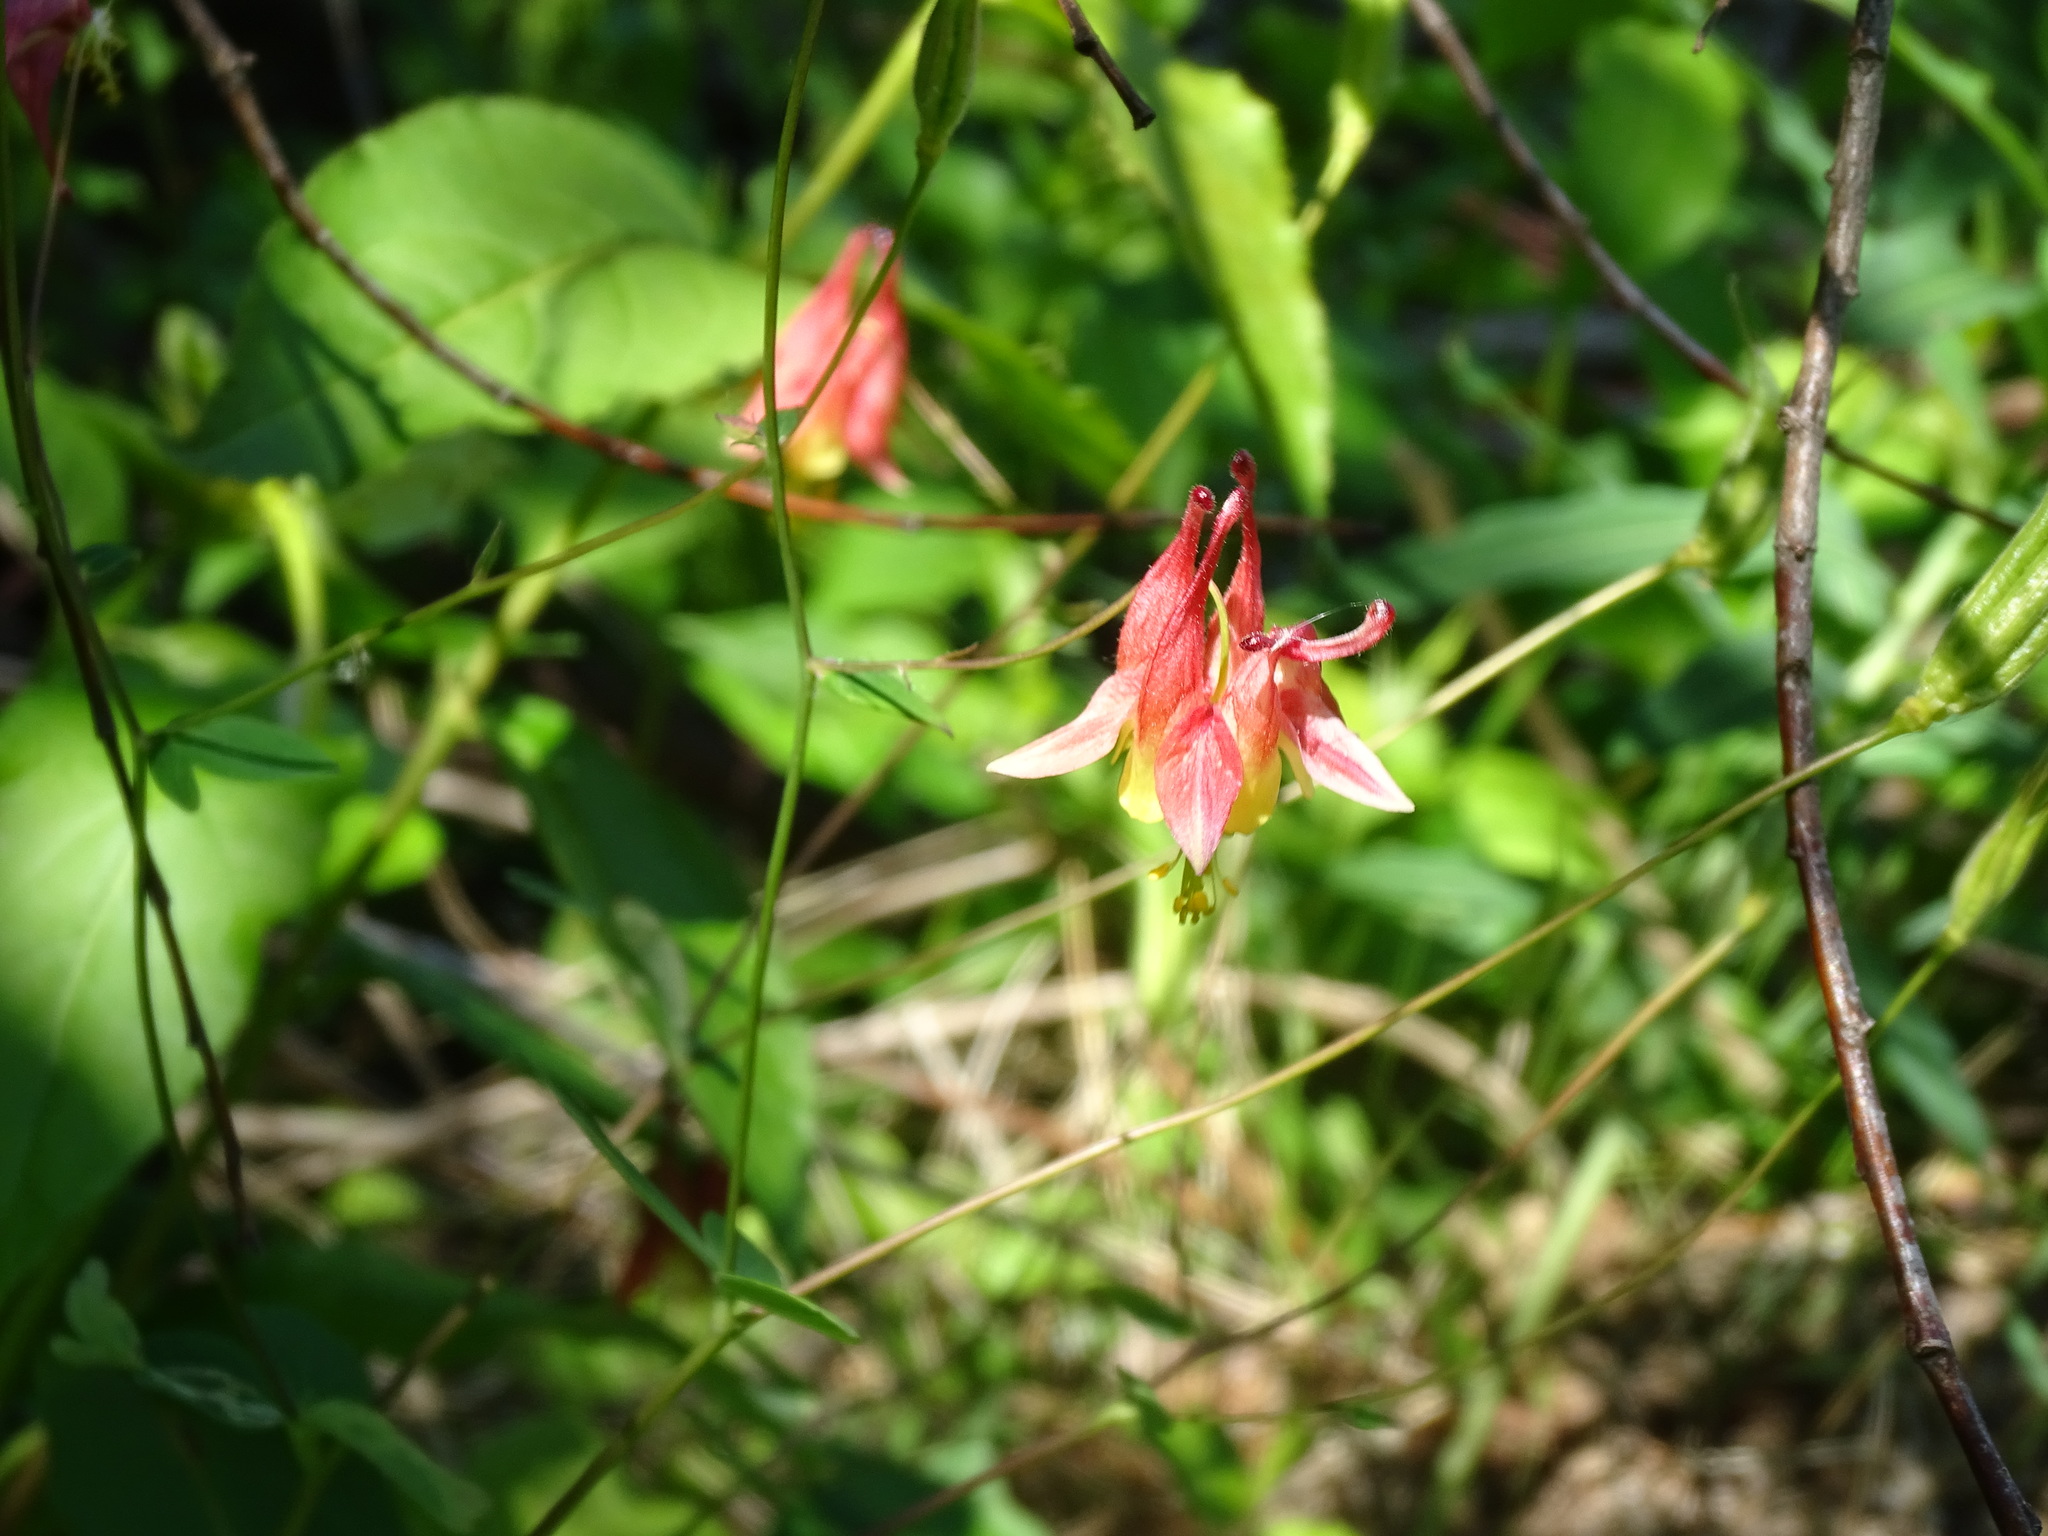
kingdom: Plantae
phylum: Tracheophyta
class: Magnoliopsida
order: Ranunculales
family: Ranunculaceae
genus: Aquilegia
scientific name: Aquilegia canadensis
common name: American columbine
